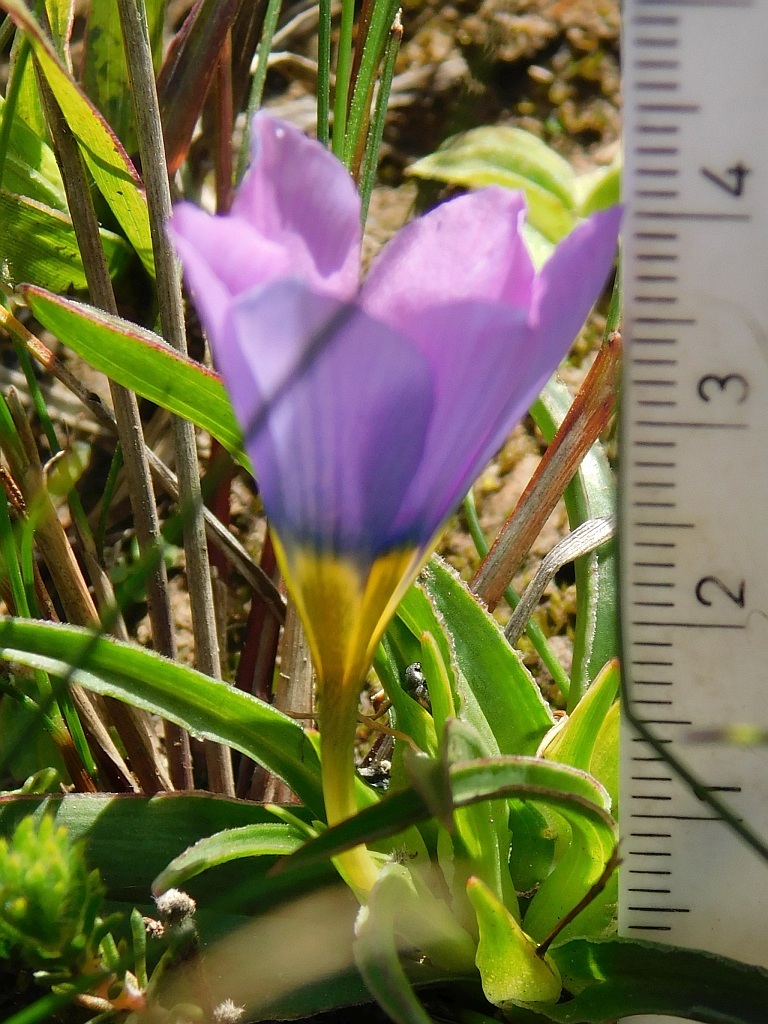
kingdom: Plantae
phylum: Tracheophyta
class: Liliopsida
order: Asparagales
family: Iridaceae
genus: Moraea
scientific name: Moraea barnardiella
